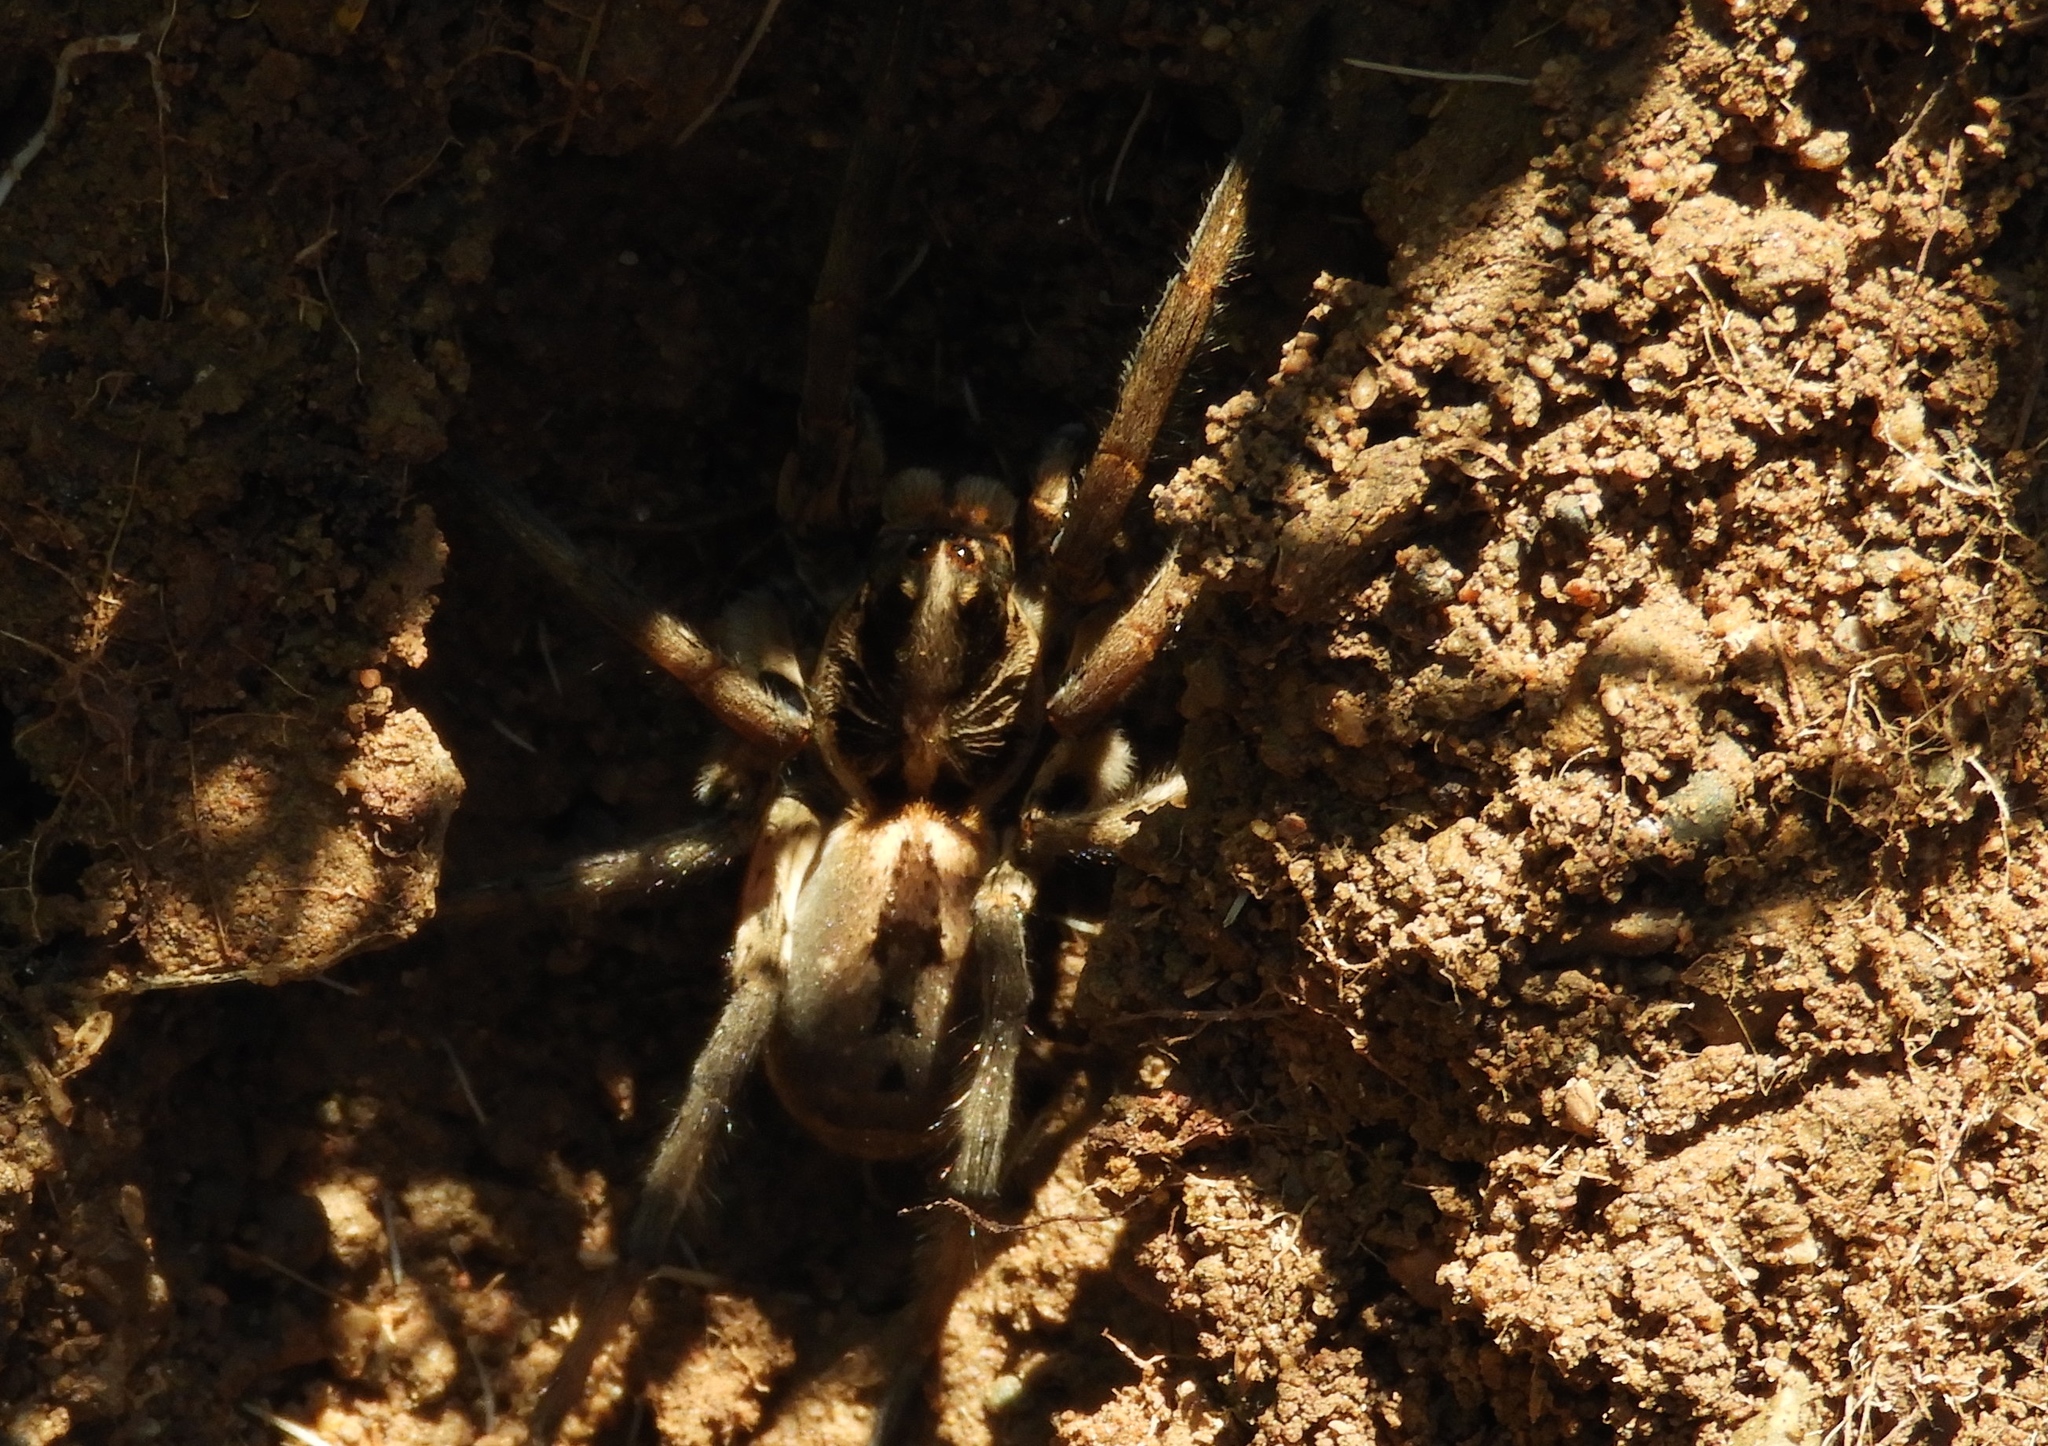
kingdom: Animalia
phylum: Arthropoda
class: Arachnida
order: Araneae
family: Lycosidae
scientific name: Lycosidae
